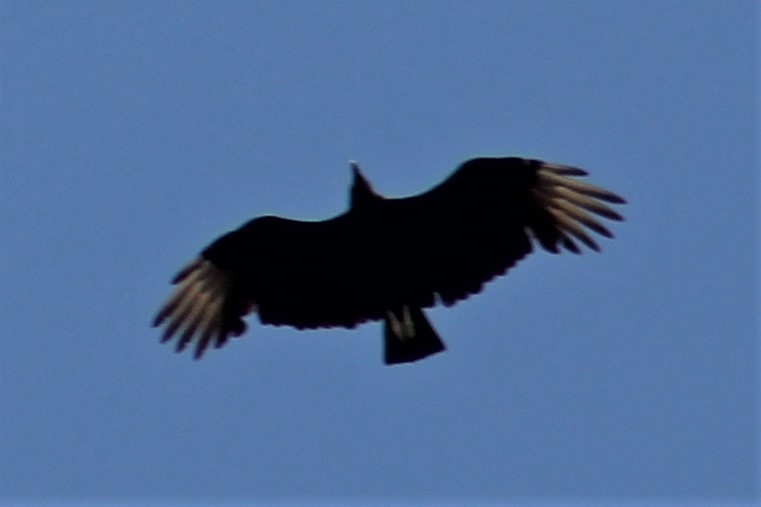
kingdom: Animalia
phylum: Chordata
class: Aves
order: Accipitriformes
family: Cathartidae
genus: Coragyps
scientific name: Coragyps atratus
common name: Black vulture
